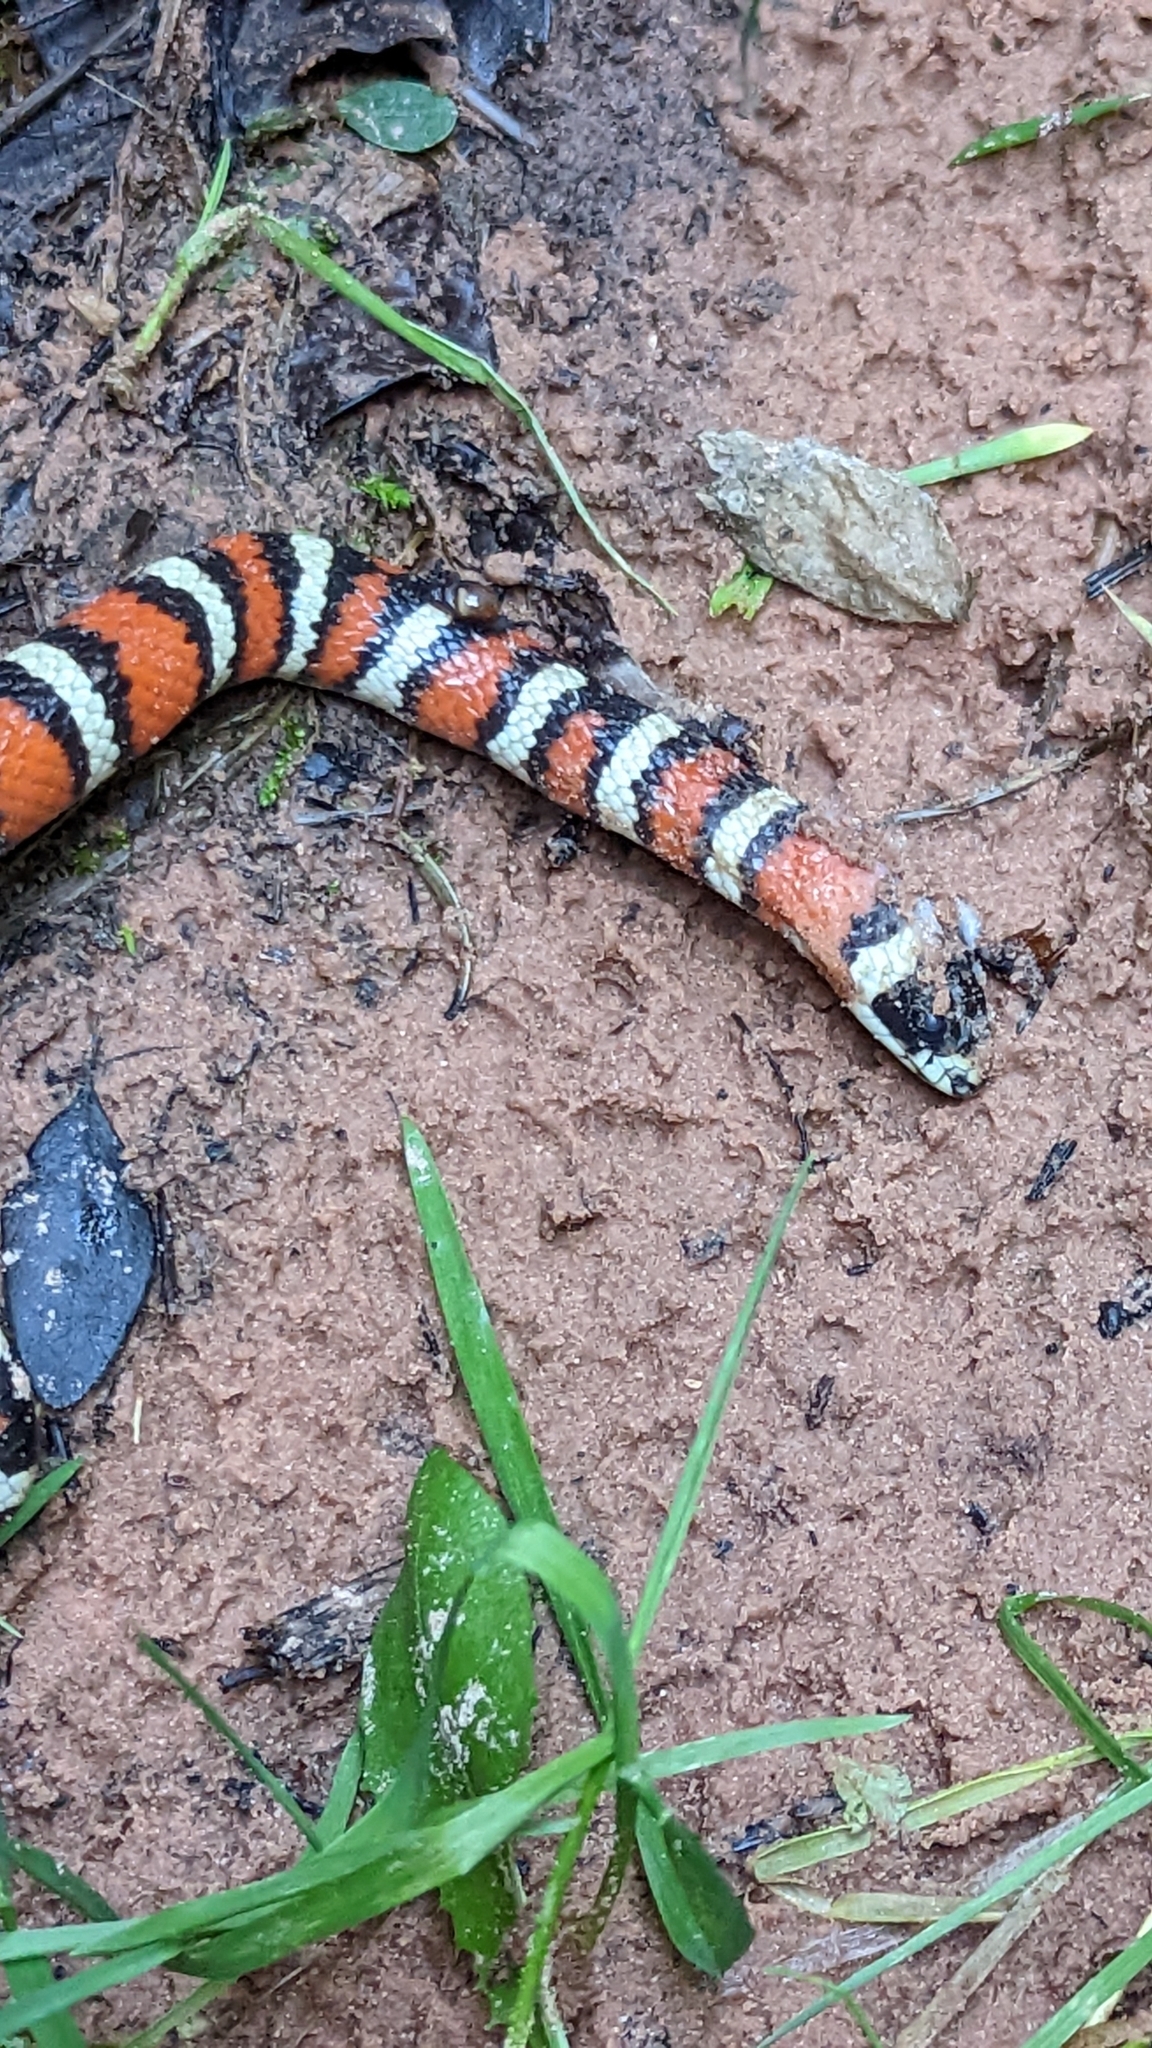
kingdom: Animalia
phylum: Chordata
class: Squamata
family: Colubridae
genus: Lampropeltis
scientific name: Lampropeltis pyromelana
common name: Sonoran mountain kingsnake
